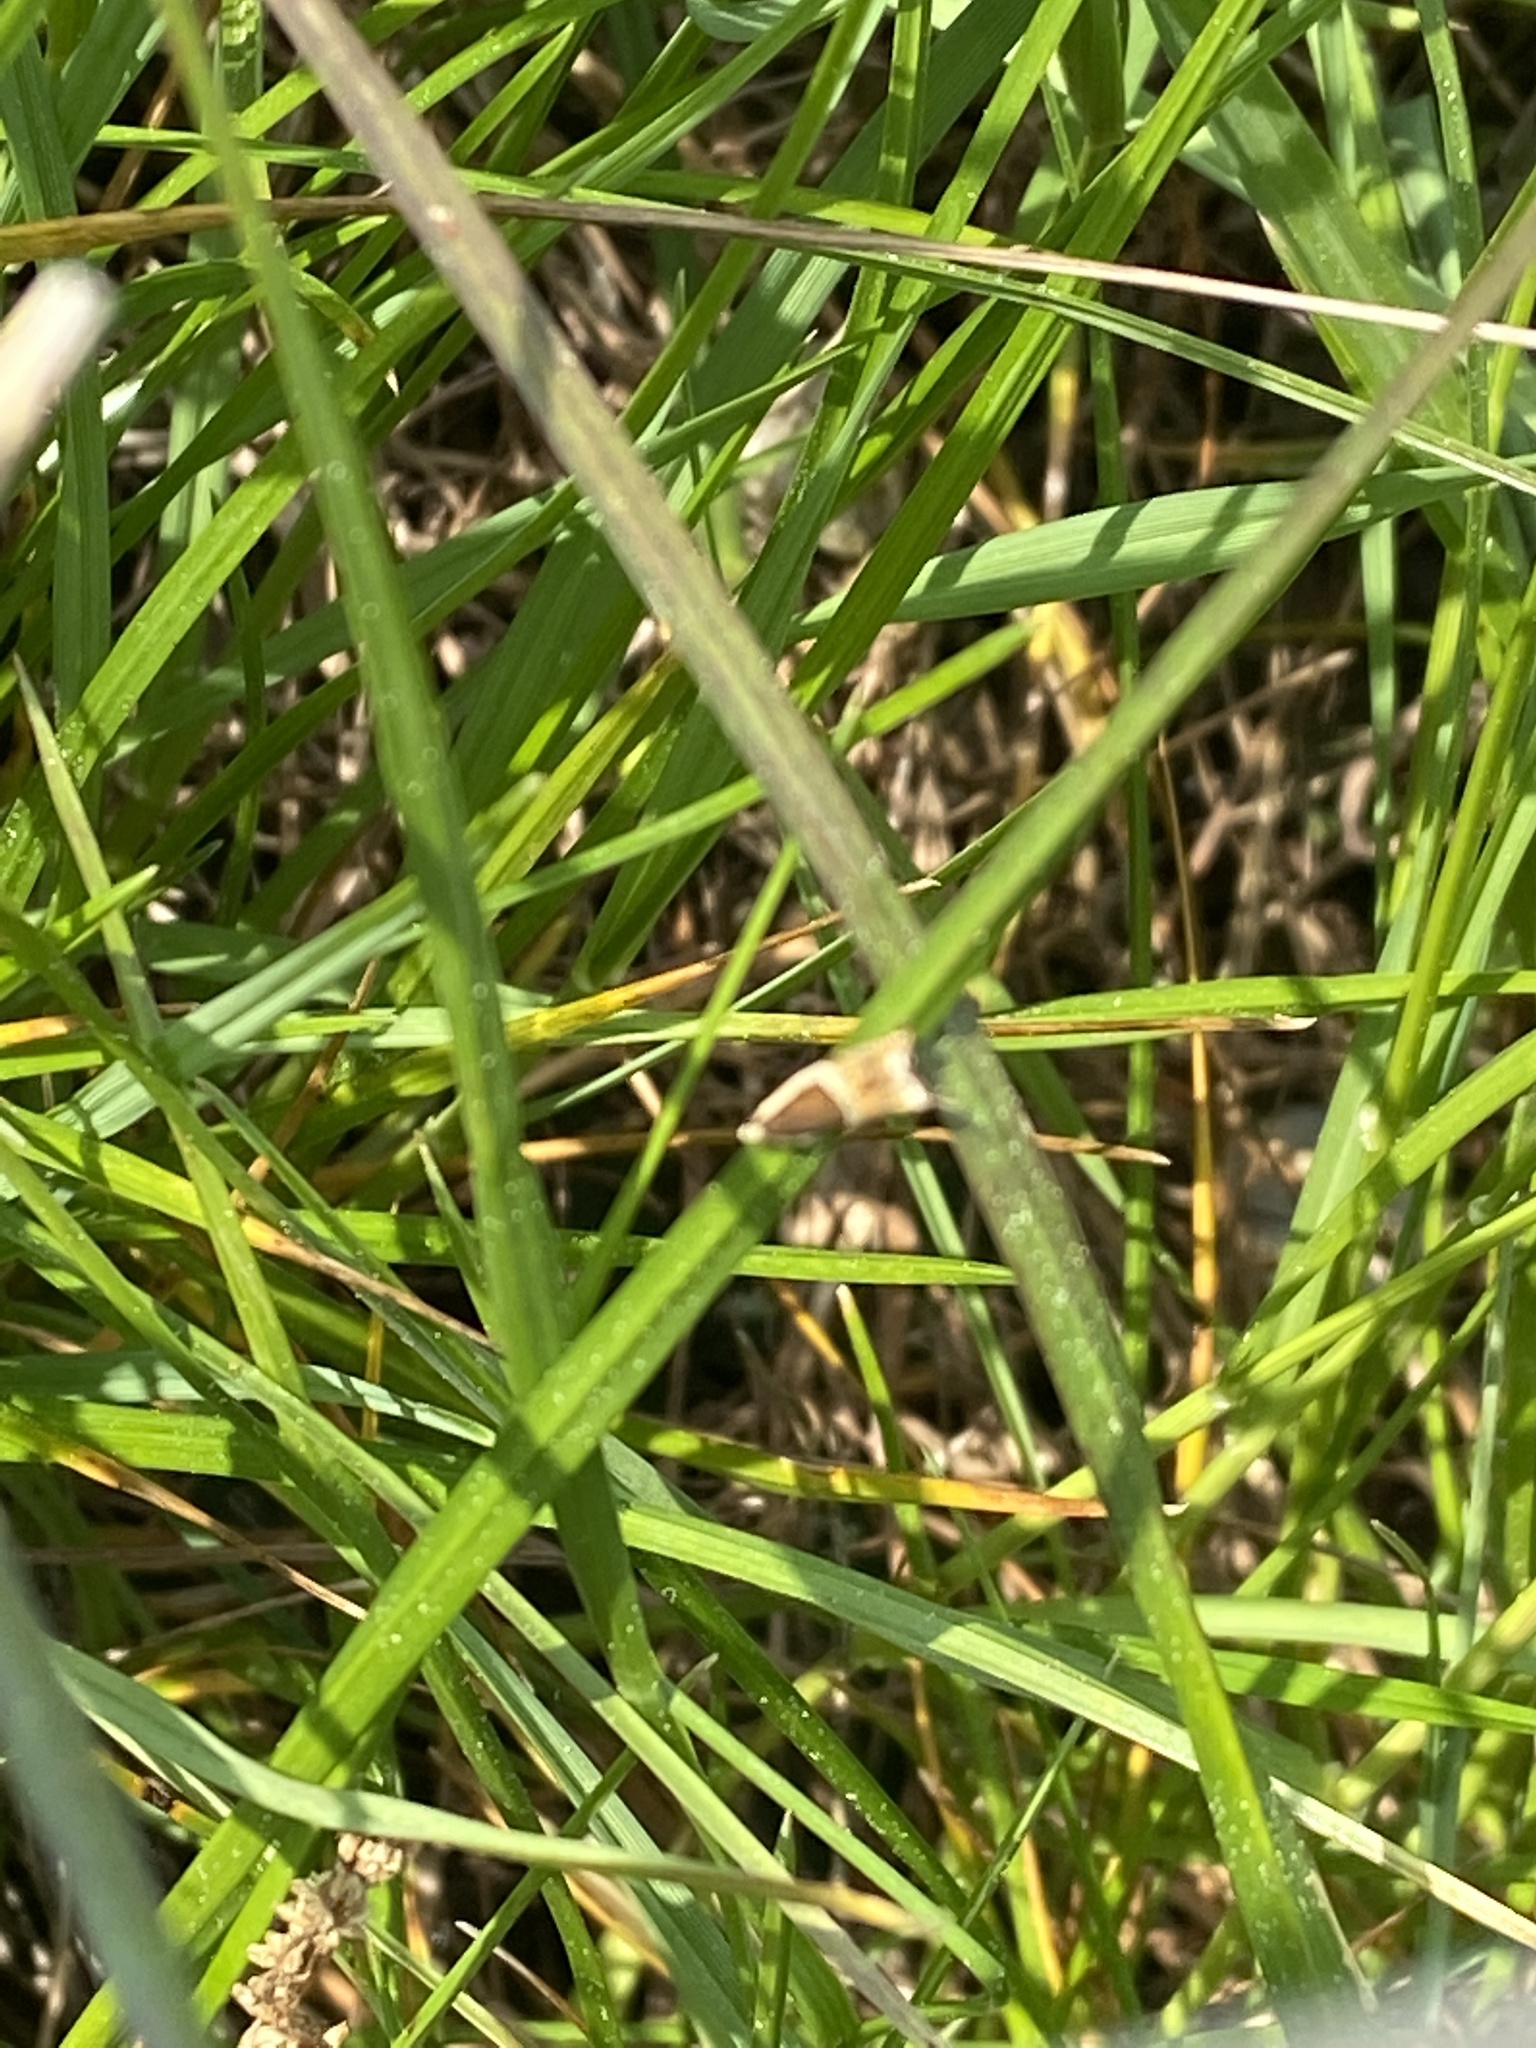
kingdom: Animalia
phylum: Arthropoda
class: Insecta
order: Lepidoptera
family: Tortricidae
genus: Ancylis
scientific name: Ancylis badiana
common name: Common roller
